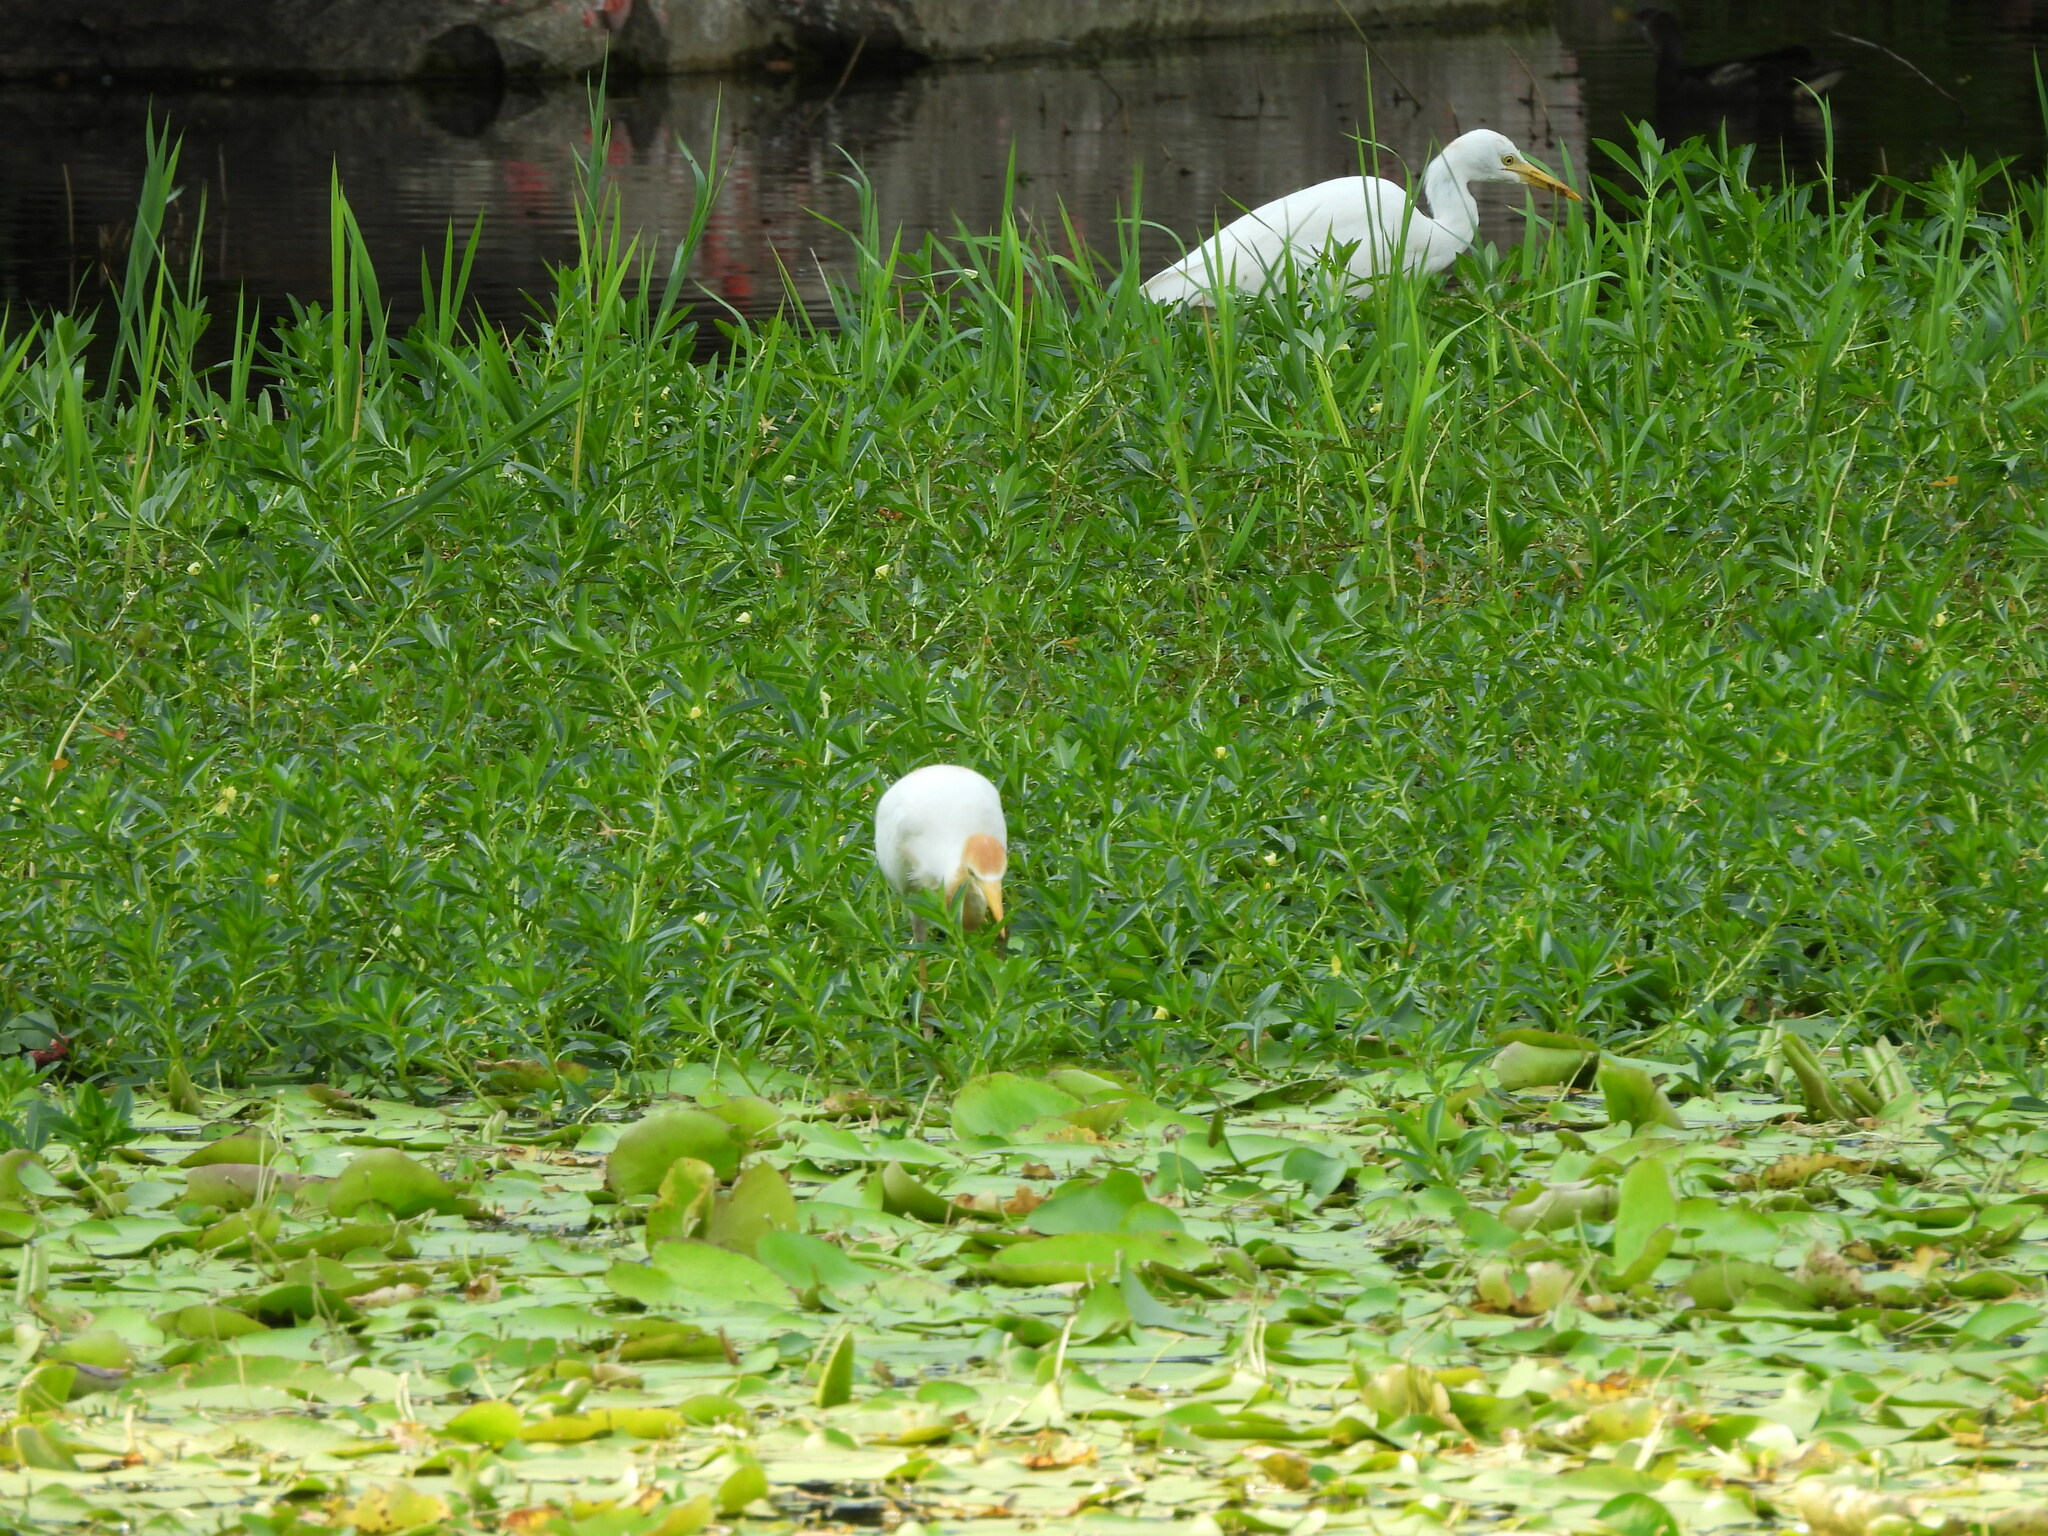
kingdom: Animalia
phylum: Chordata
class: Aves
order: Pelecaniformes
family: Ardeidae
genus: Bubulcus
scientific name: Bubulcus coromandus
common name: Eastern cattle egret
